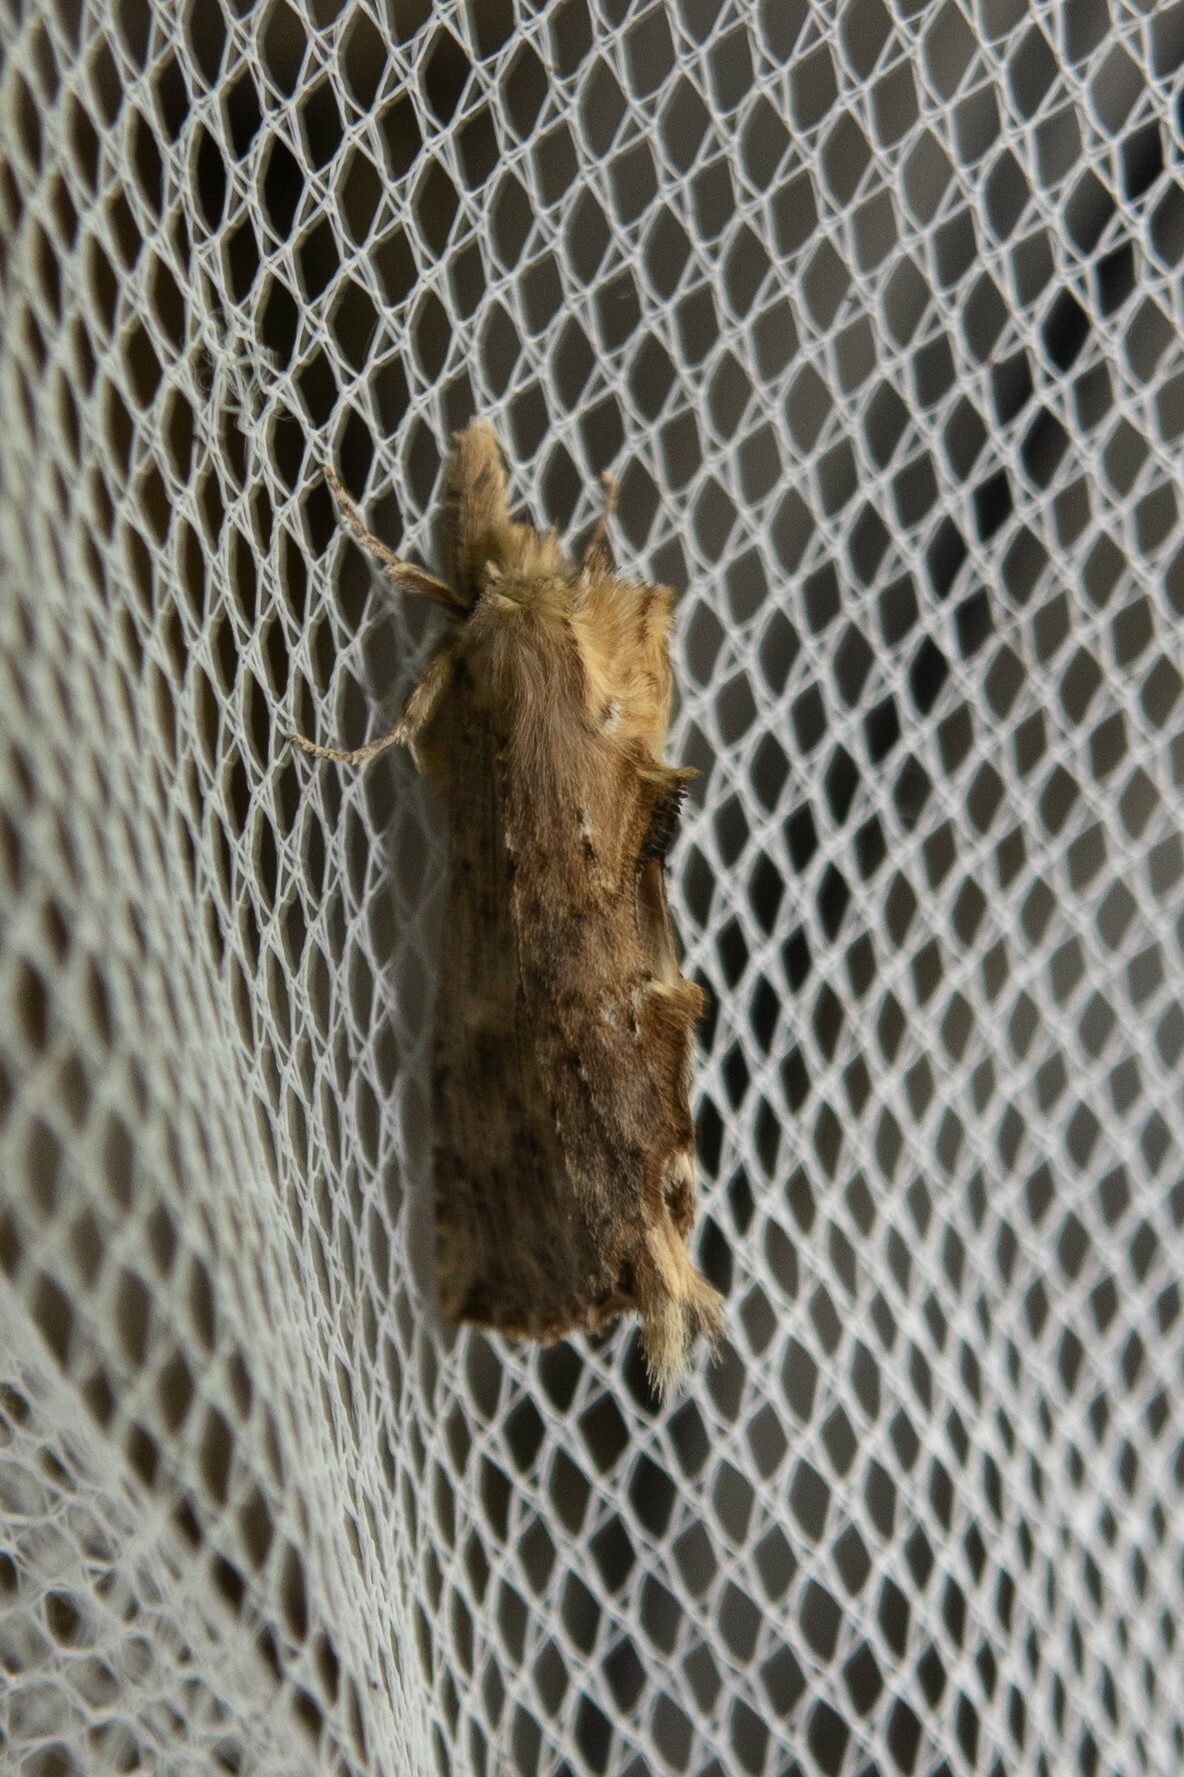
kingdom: Animalia
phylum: Arthropoda
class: Insecta
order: Lepidoptera
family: Notodontidae
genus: Pterostoma
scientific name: Pterostoma palpina
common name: Pale prominent
